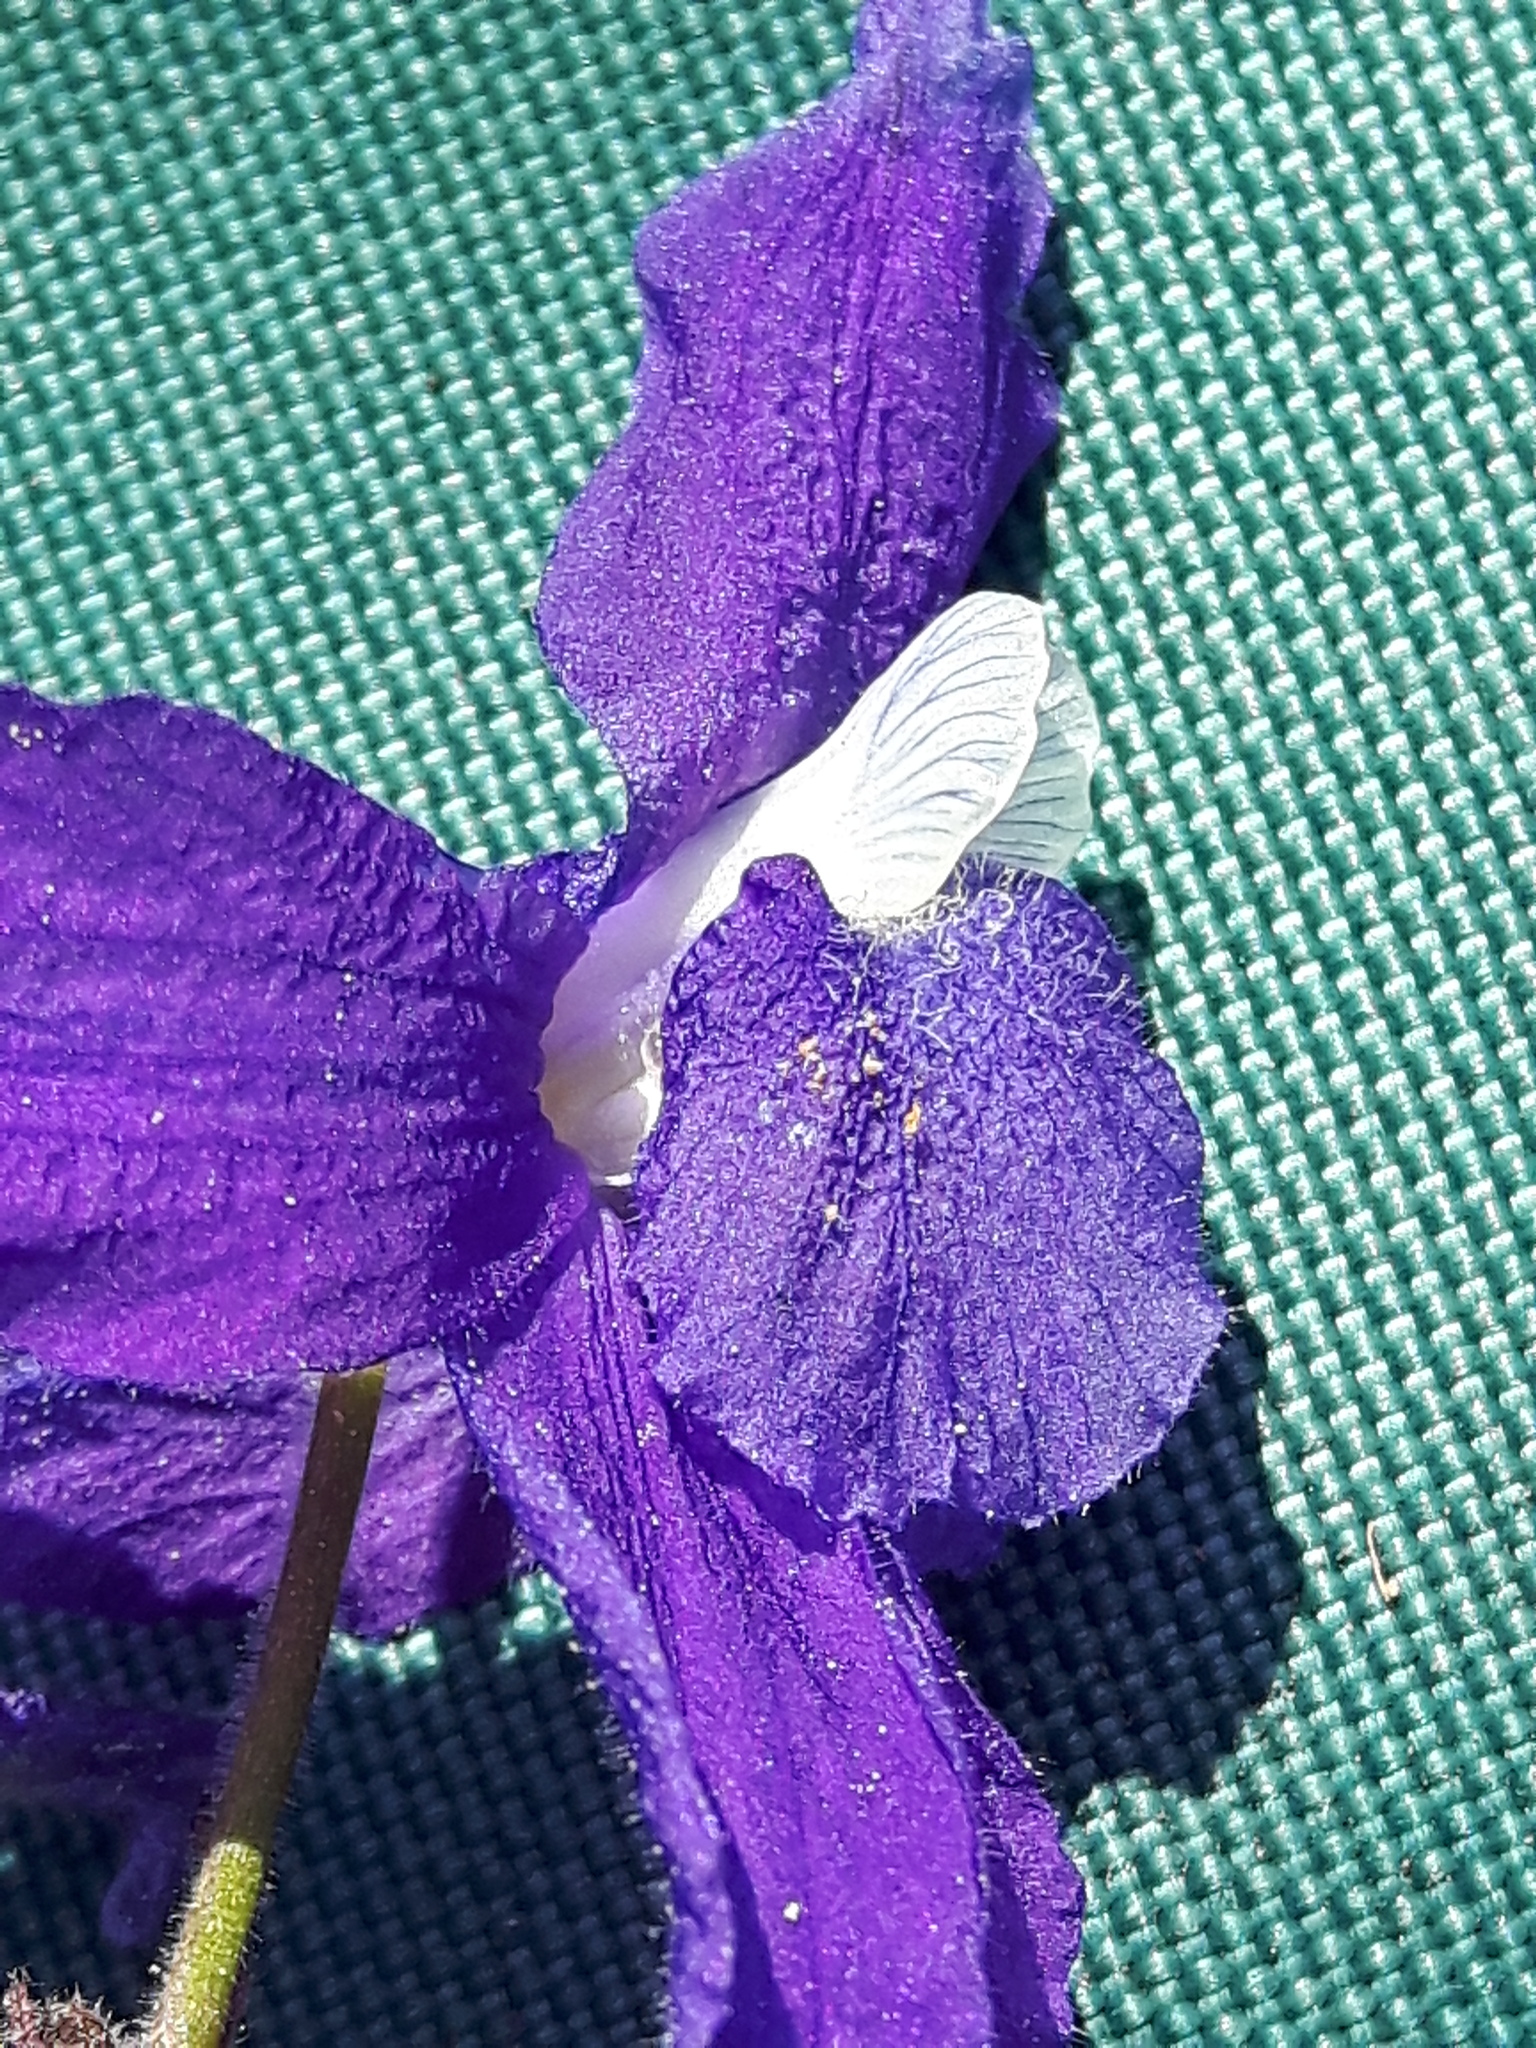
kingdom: Plantae
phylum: Tracheophyta
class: Magnoliopsida
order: Ranunculales
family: Ranunculaceae
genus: Delphinium
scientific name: Delphinium bicolor
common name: Low larkspur
